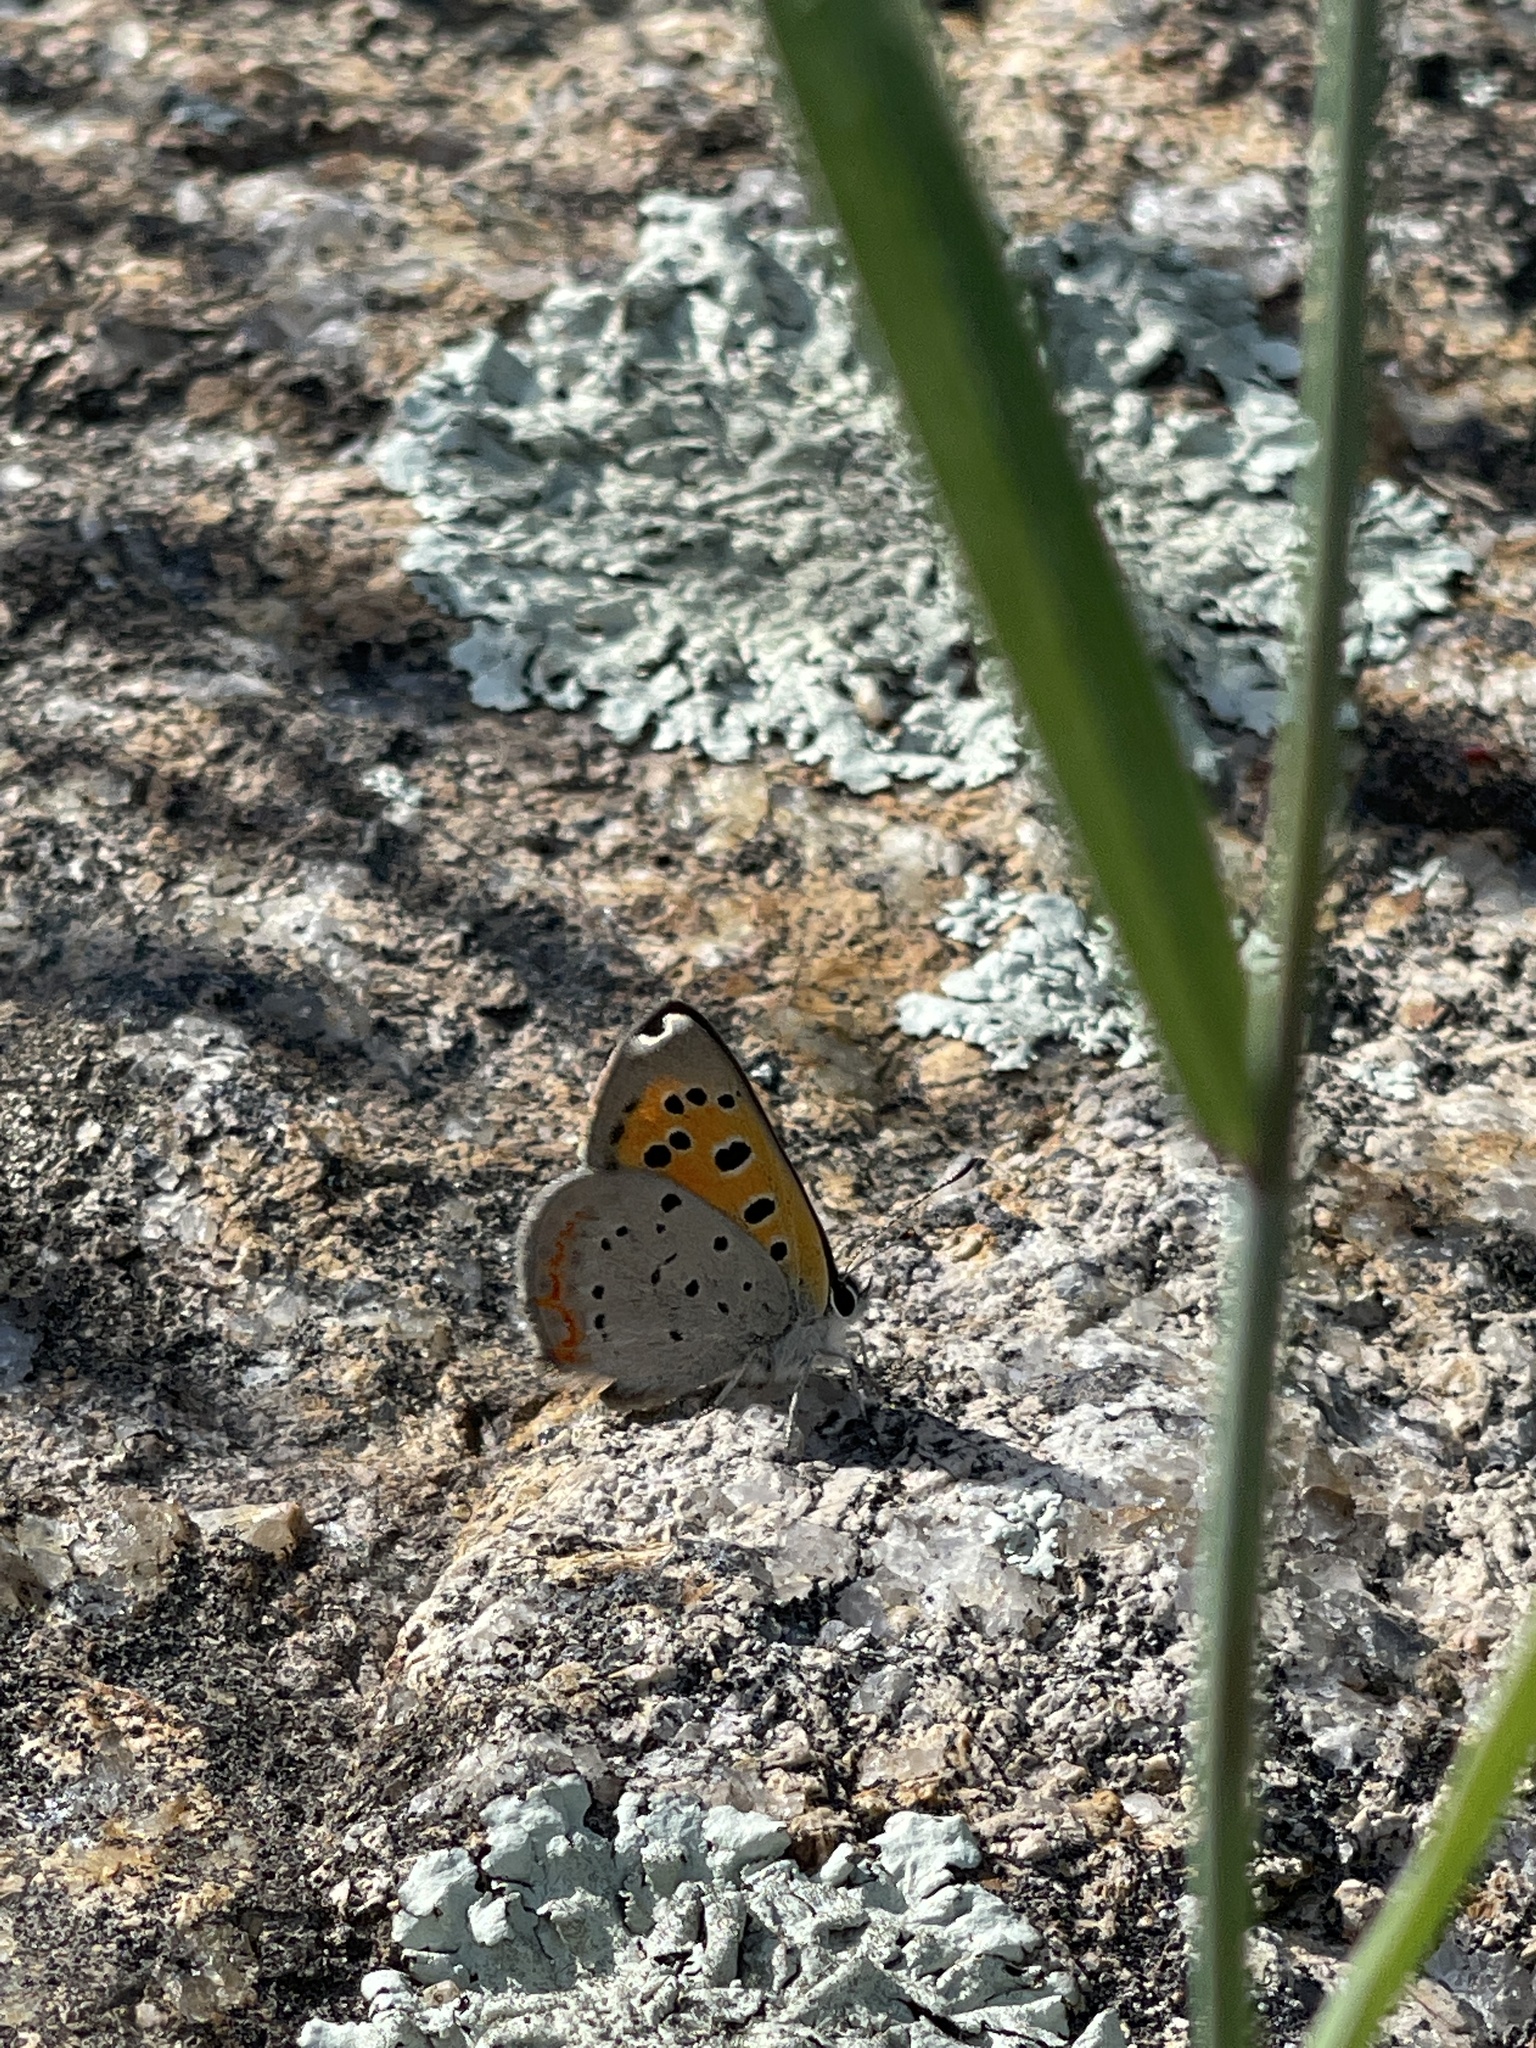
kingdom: Animalia
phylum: Arthropoda
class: Insecta
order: Lepidoptera
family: Lycaenidae
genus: Lycaena
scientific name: Lycaena hypophlaeas
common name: American copper
